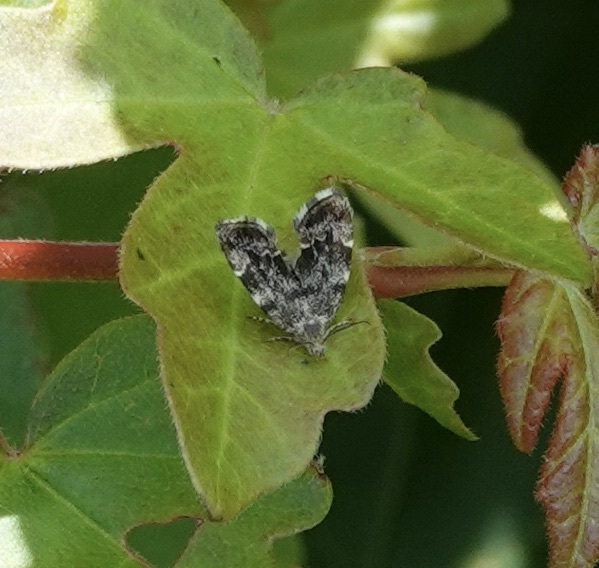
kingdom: Animalia
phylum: Arthropoda
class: Insecta
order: Lepidoptera
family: Choreutidae
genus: Anthophila
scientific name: Anthophila fabriciana
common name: Nettle-tap
